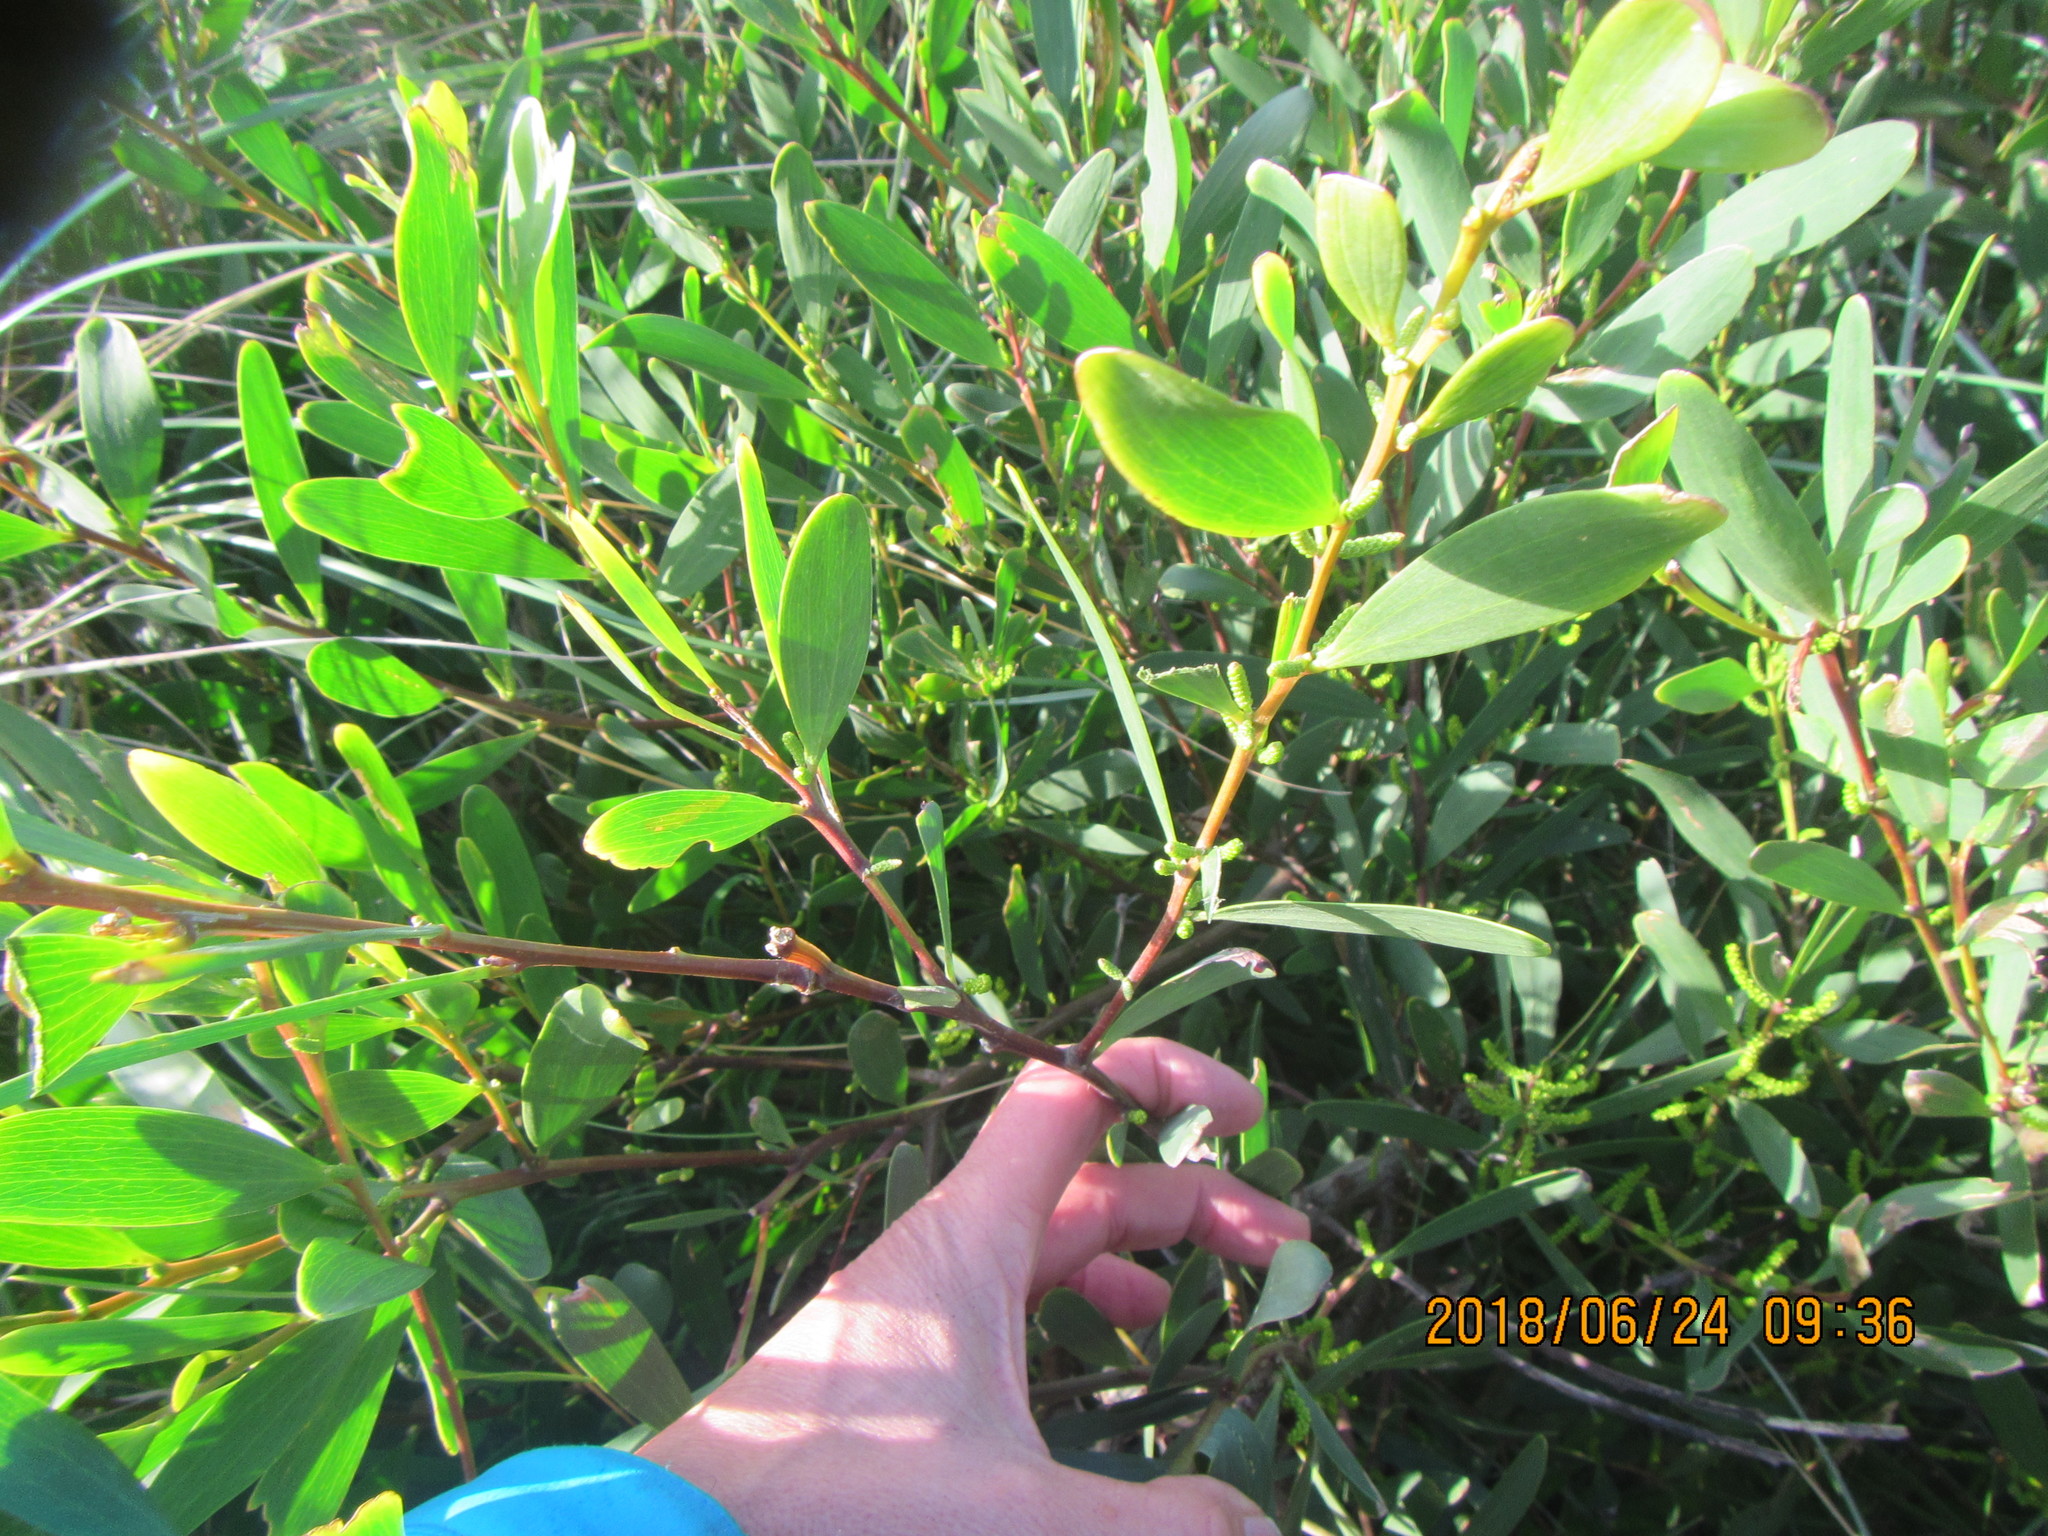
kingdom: Plantae
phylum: Tracheophyta
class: Magnoliopsida
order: Fabales
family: Fabaceae
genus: Acacia
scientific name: Acacia longifolia
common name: Sydney golden wattle
